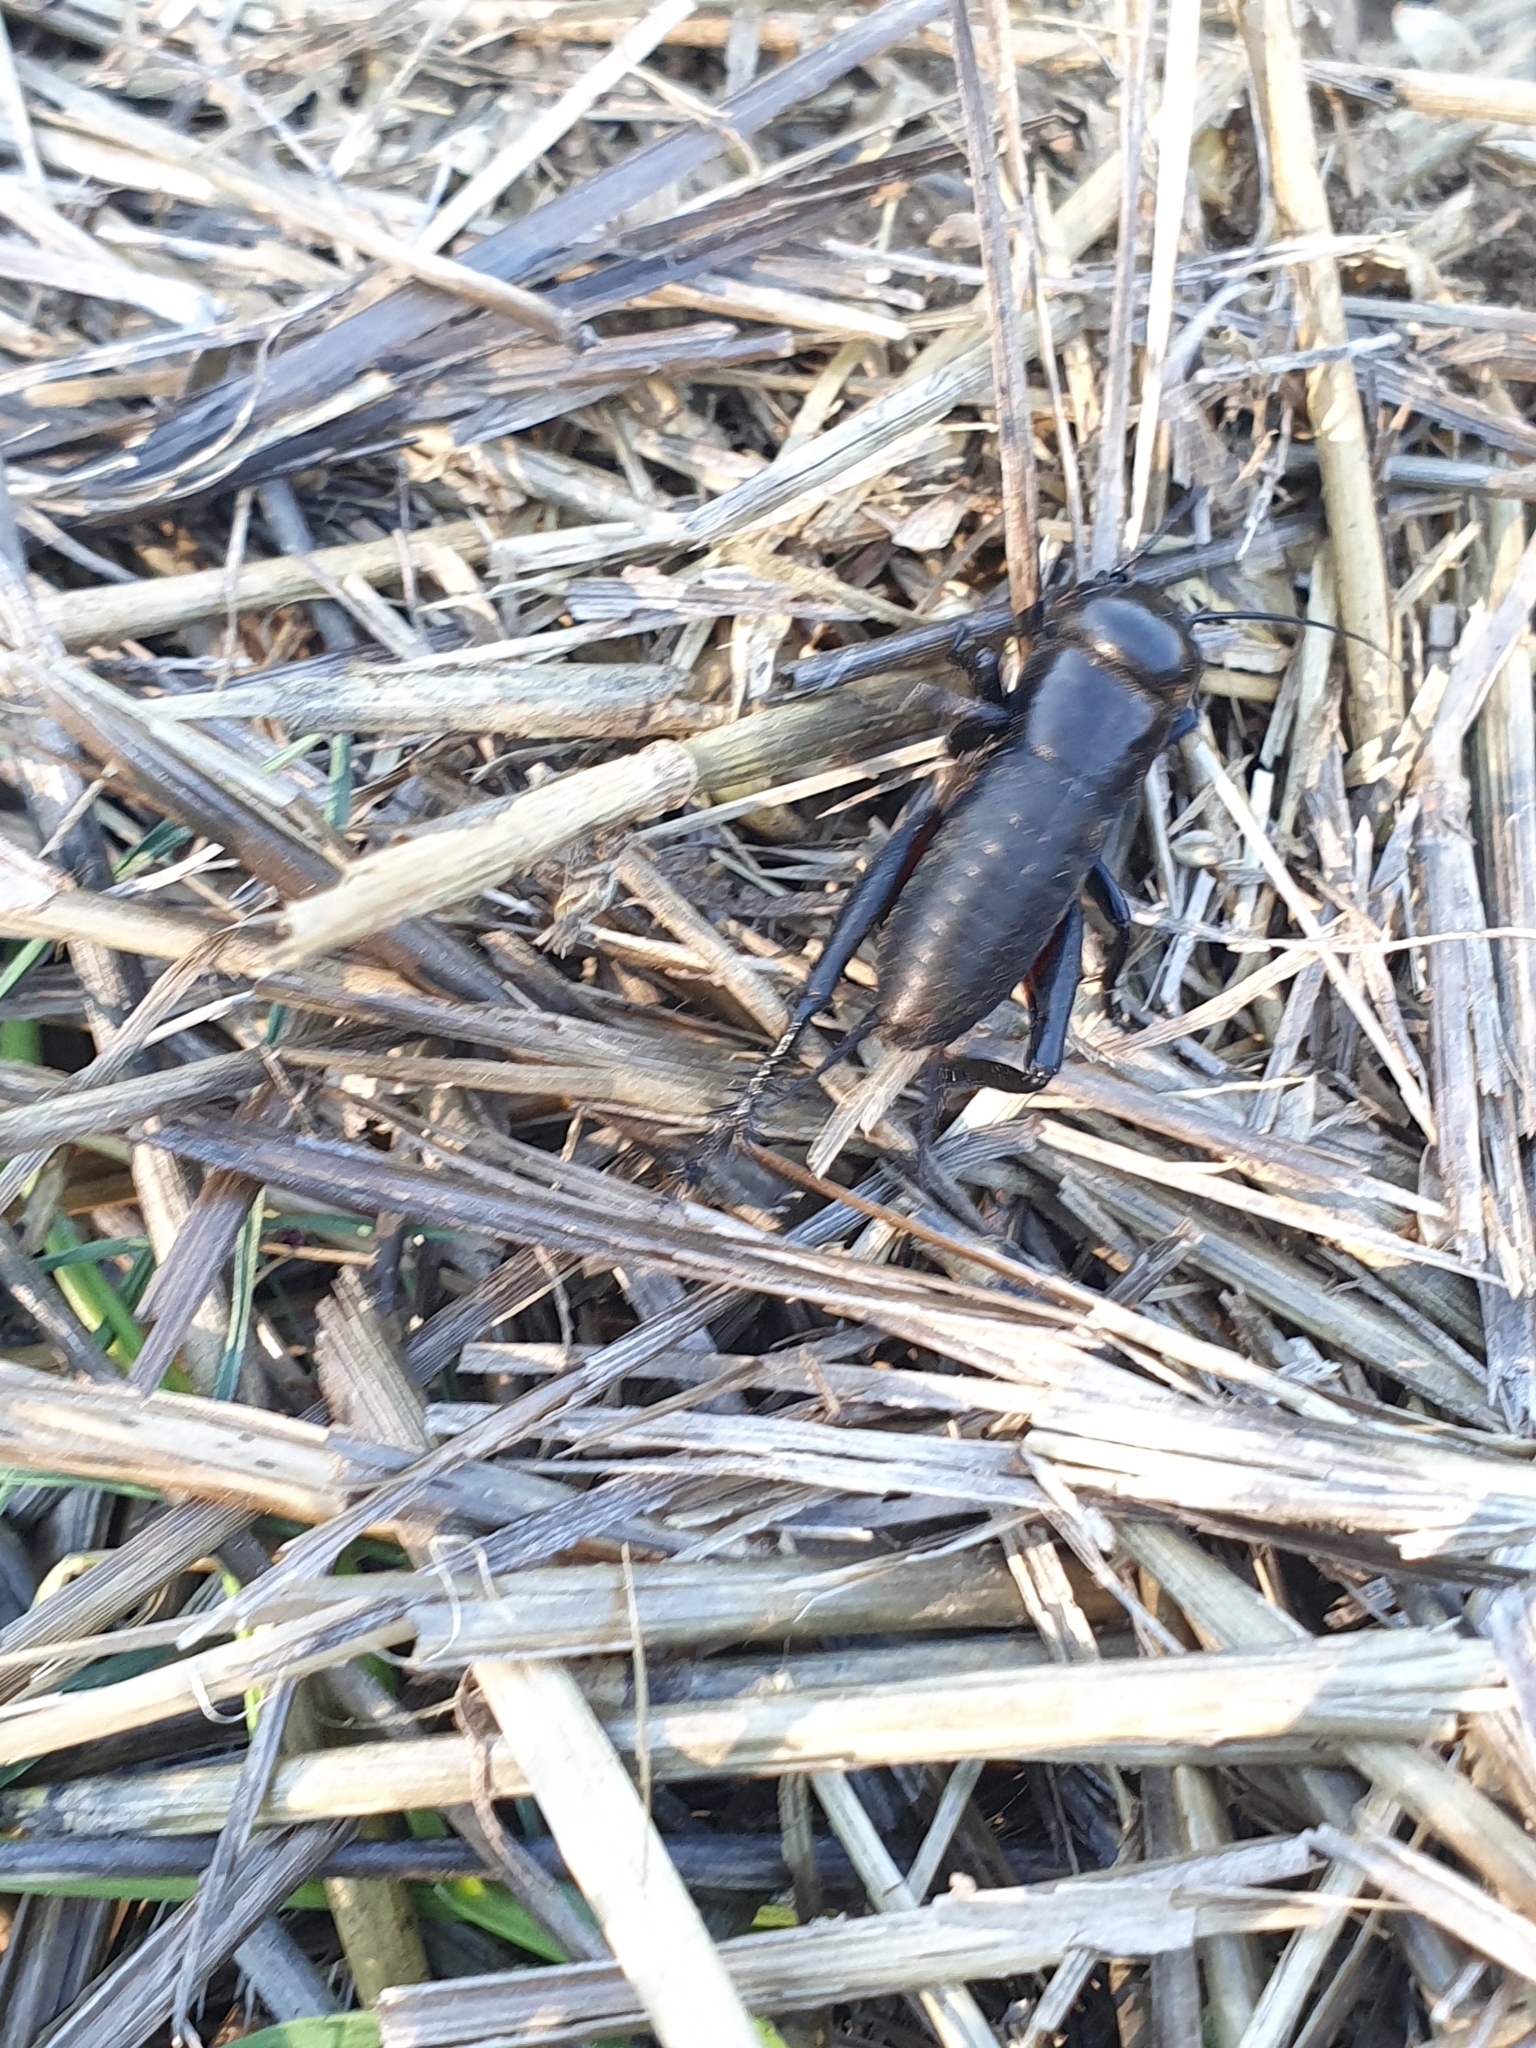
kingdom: Animalia
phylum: Arthropoda
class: Insecta
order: Orthoptera
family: Gryllidae
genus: Gryllus
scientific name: Gryllus campestris
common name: Field cricket
